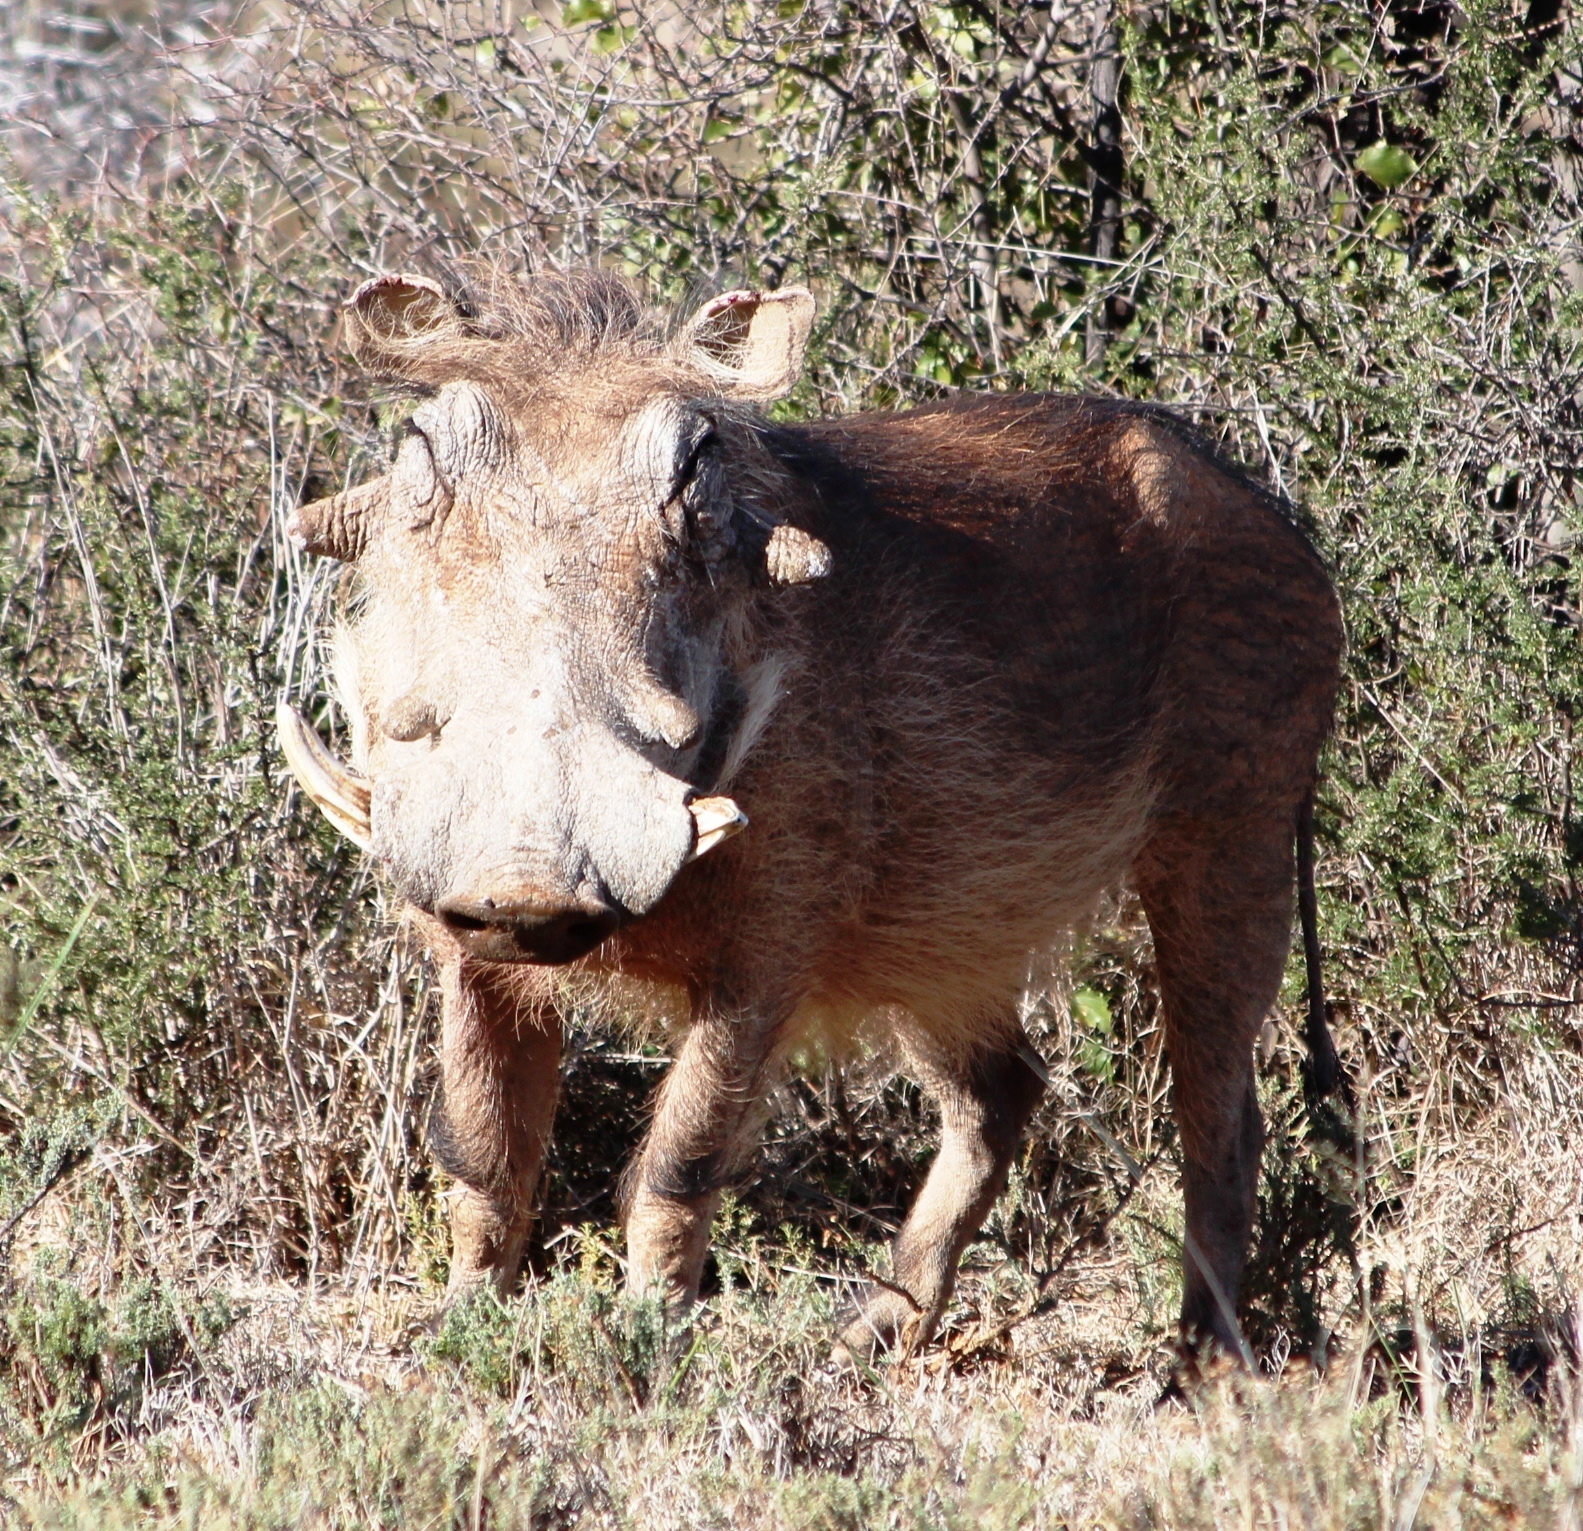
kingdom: Animalia
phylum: Chordata
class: Mammalia
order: Artiodactyla
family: Suidae
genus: Phacochoerus
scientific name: Phacochoerus africanus
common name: Common warthog
